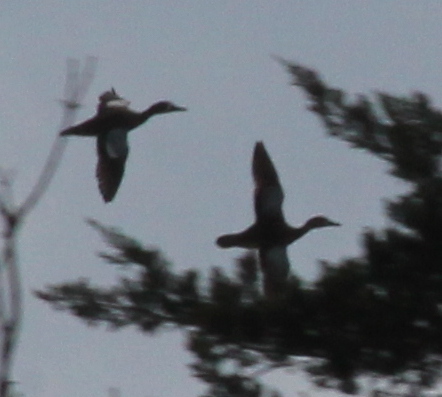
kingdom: Animalia
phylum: Chordata
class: Aves
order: Anseriformes
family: Anatidae
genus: Spatula
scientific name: Spatula discors
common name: Blue-winged teal
